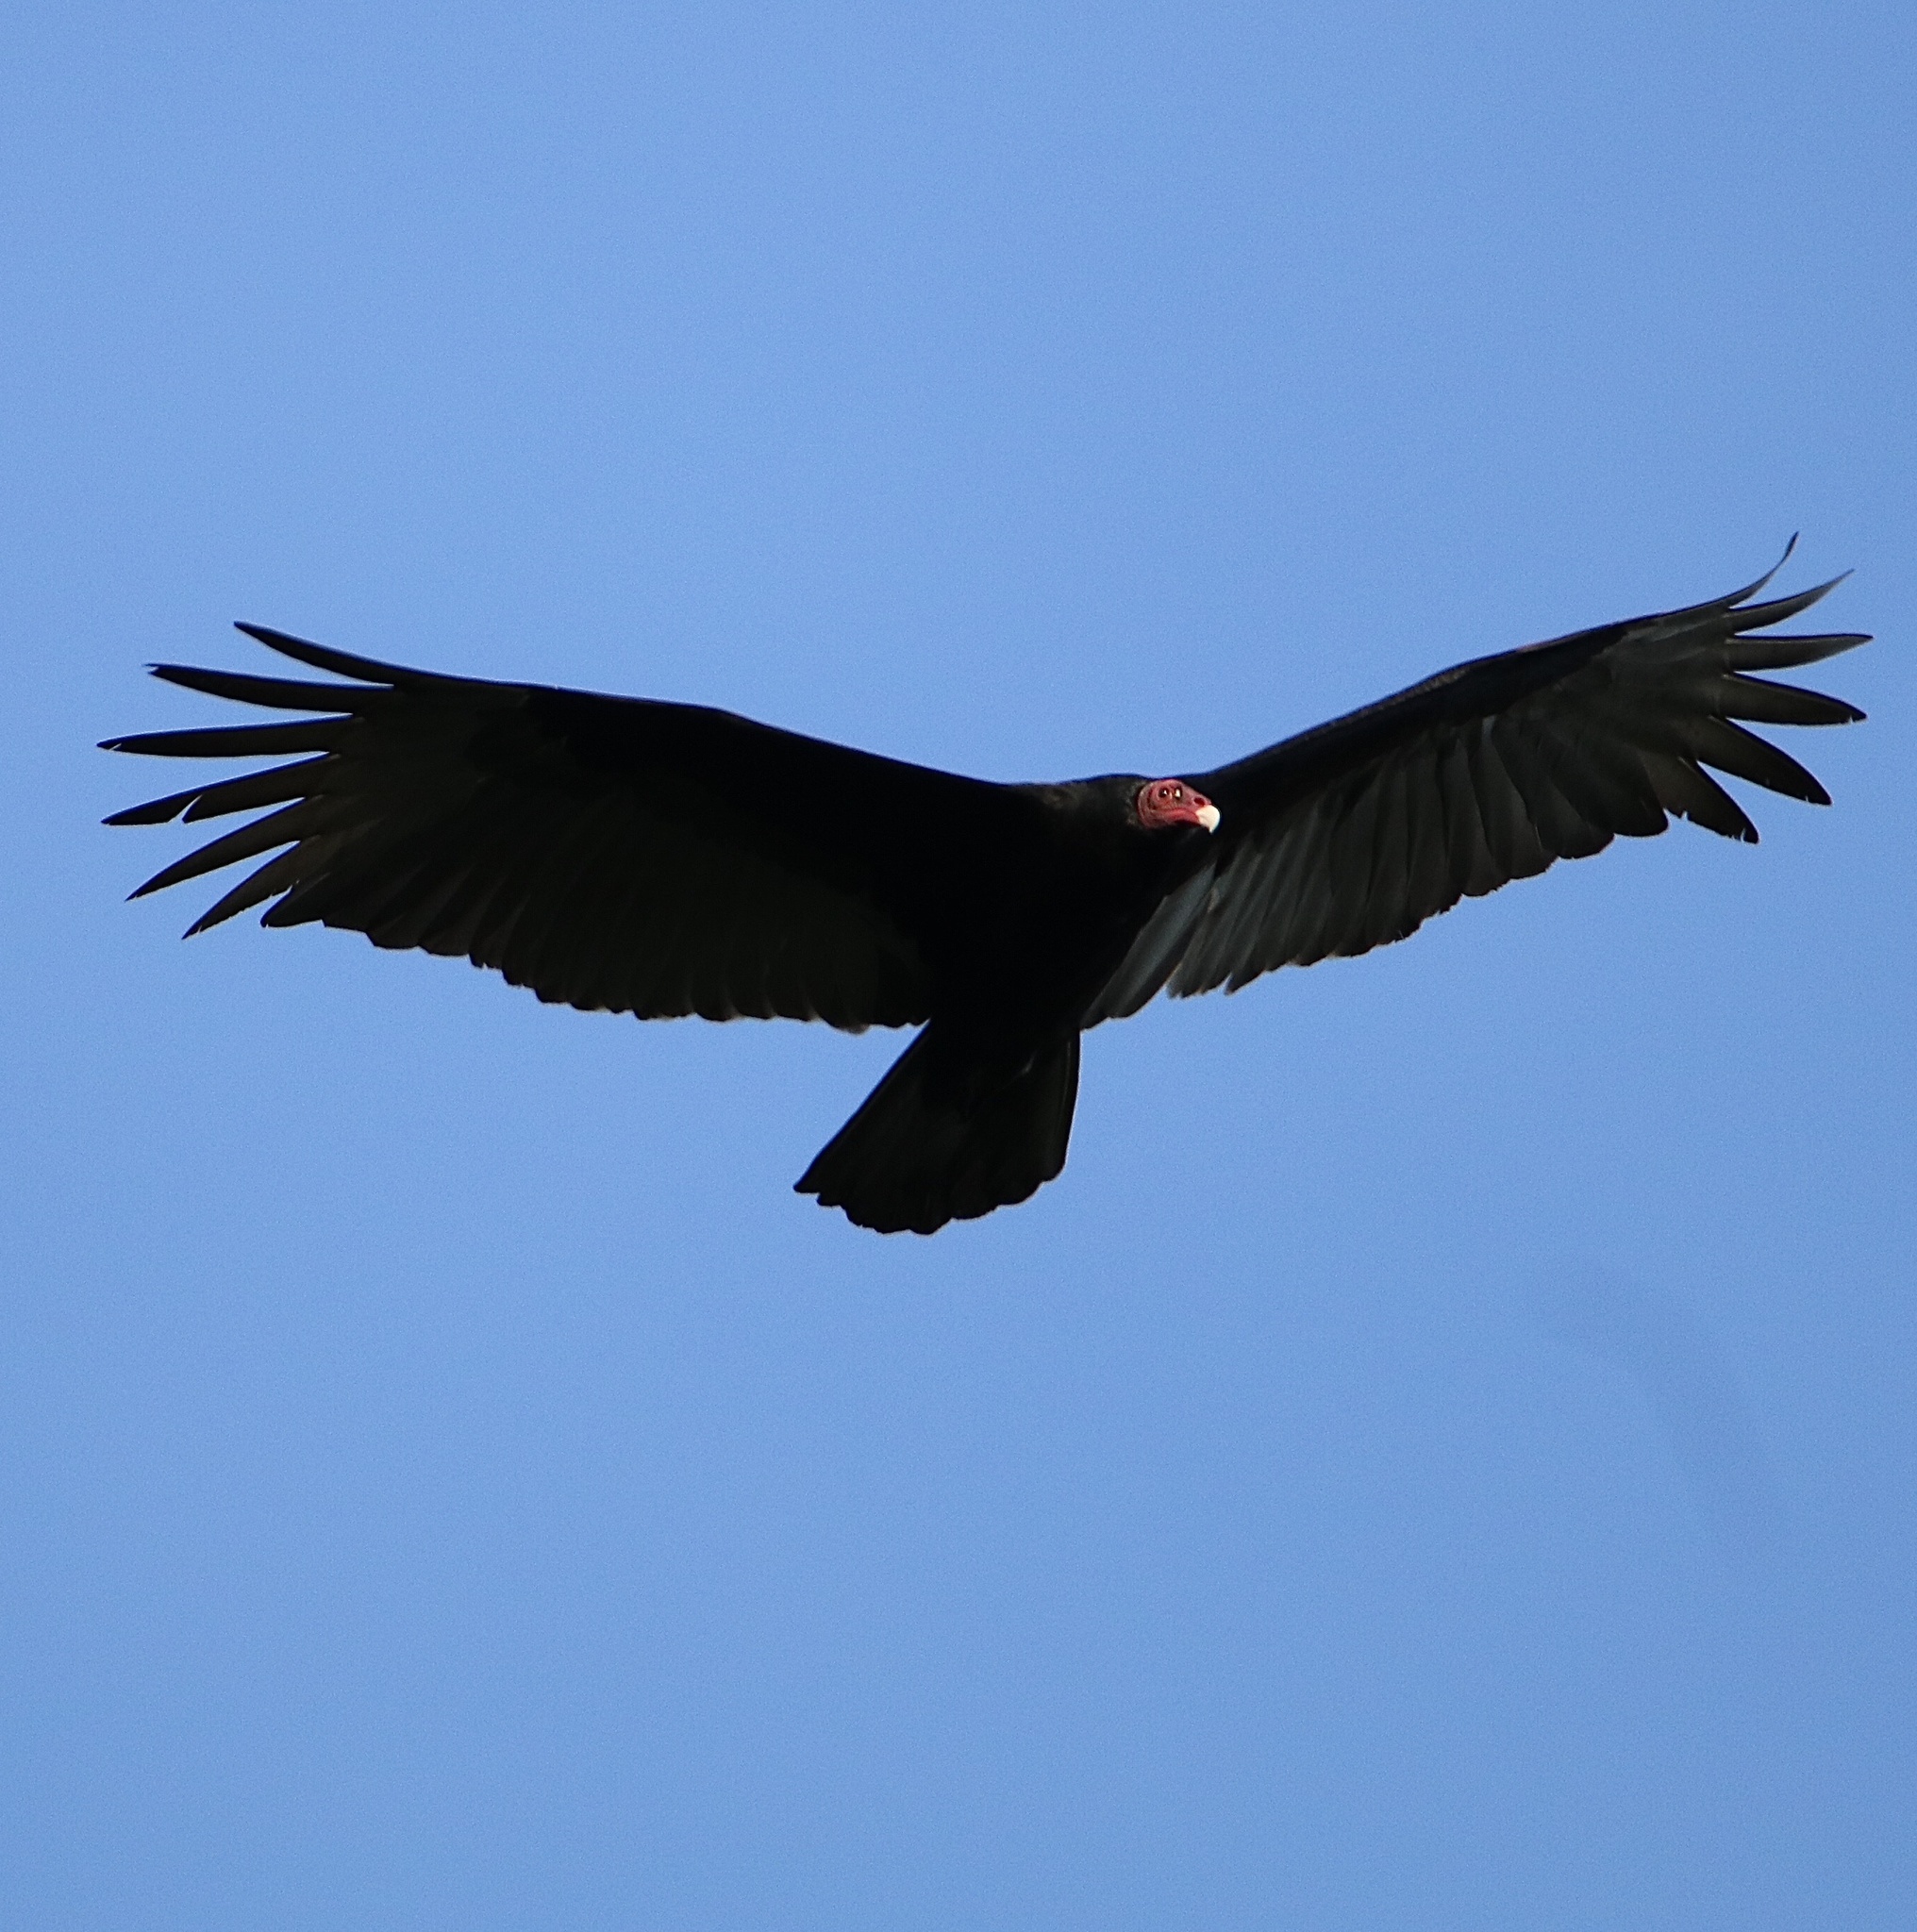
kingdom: Animalia
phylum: Chordata
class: Aves
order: Accipitriformes
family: Cathartidae
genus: Cathartes
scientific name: Cathartes aura
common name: Turkey vulture
